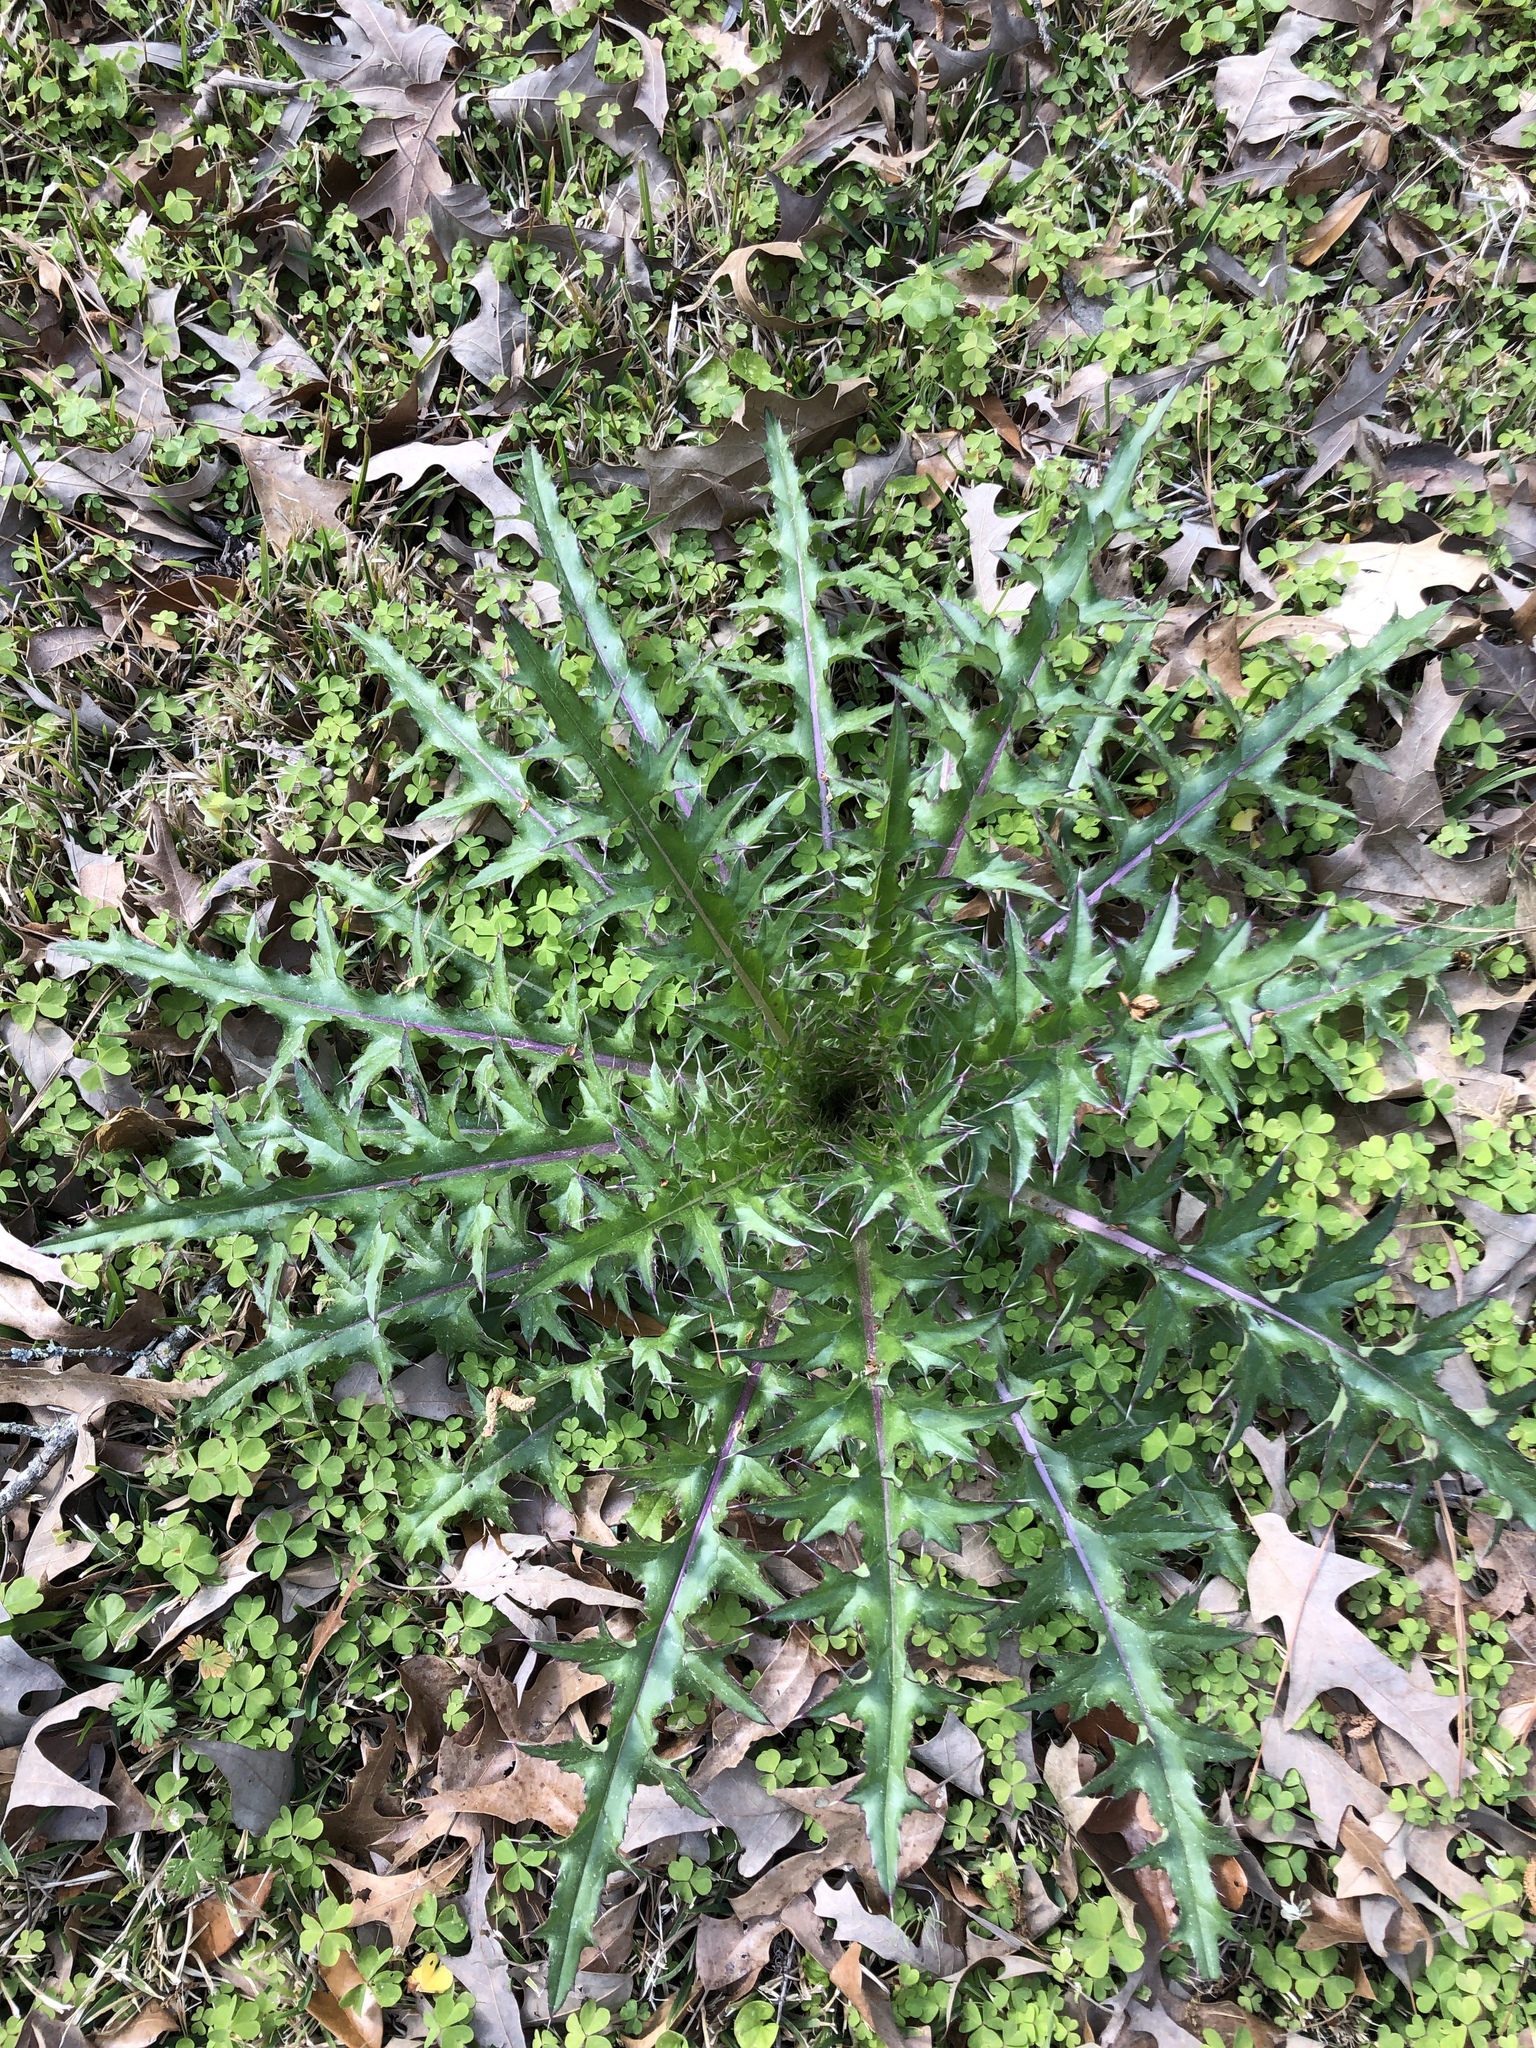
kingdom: Plantae
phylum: Tracheophyta
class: Magnoliopsida
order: Asterales
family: Asteraceae
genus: Cirsium
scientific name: Cirsium horridulum
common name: Bristly thistle
